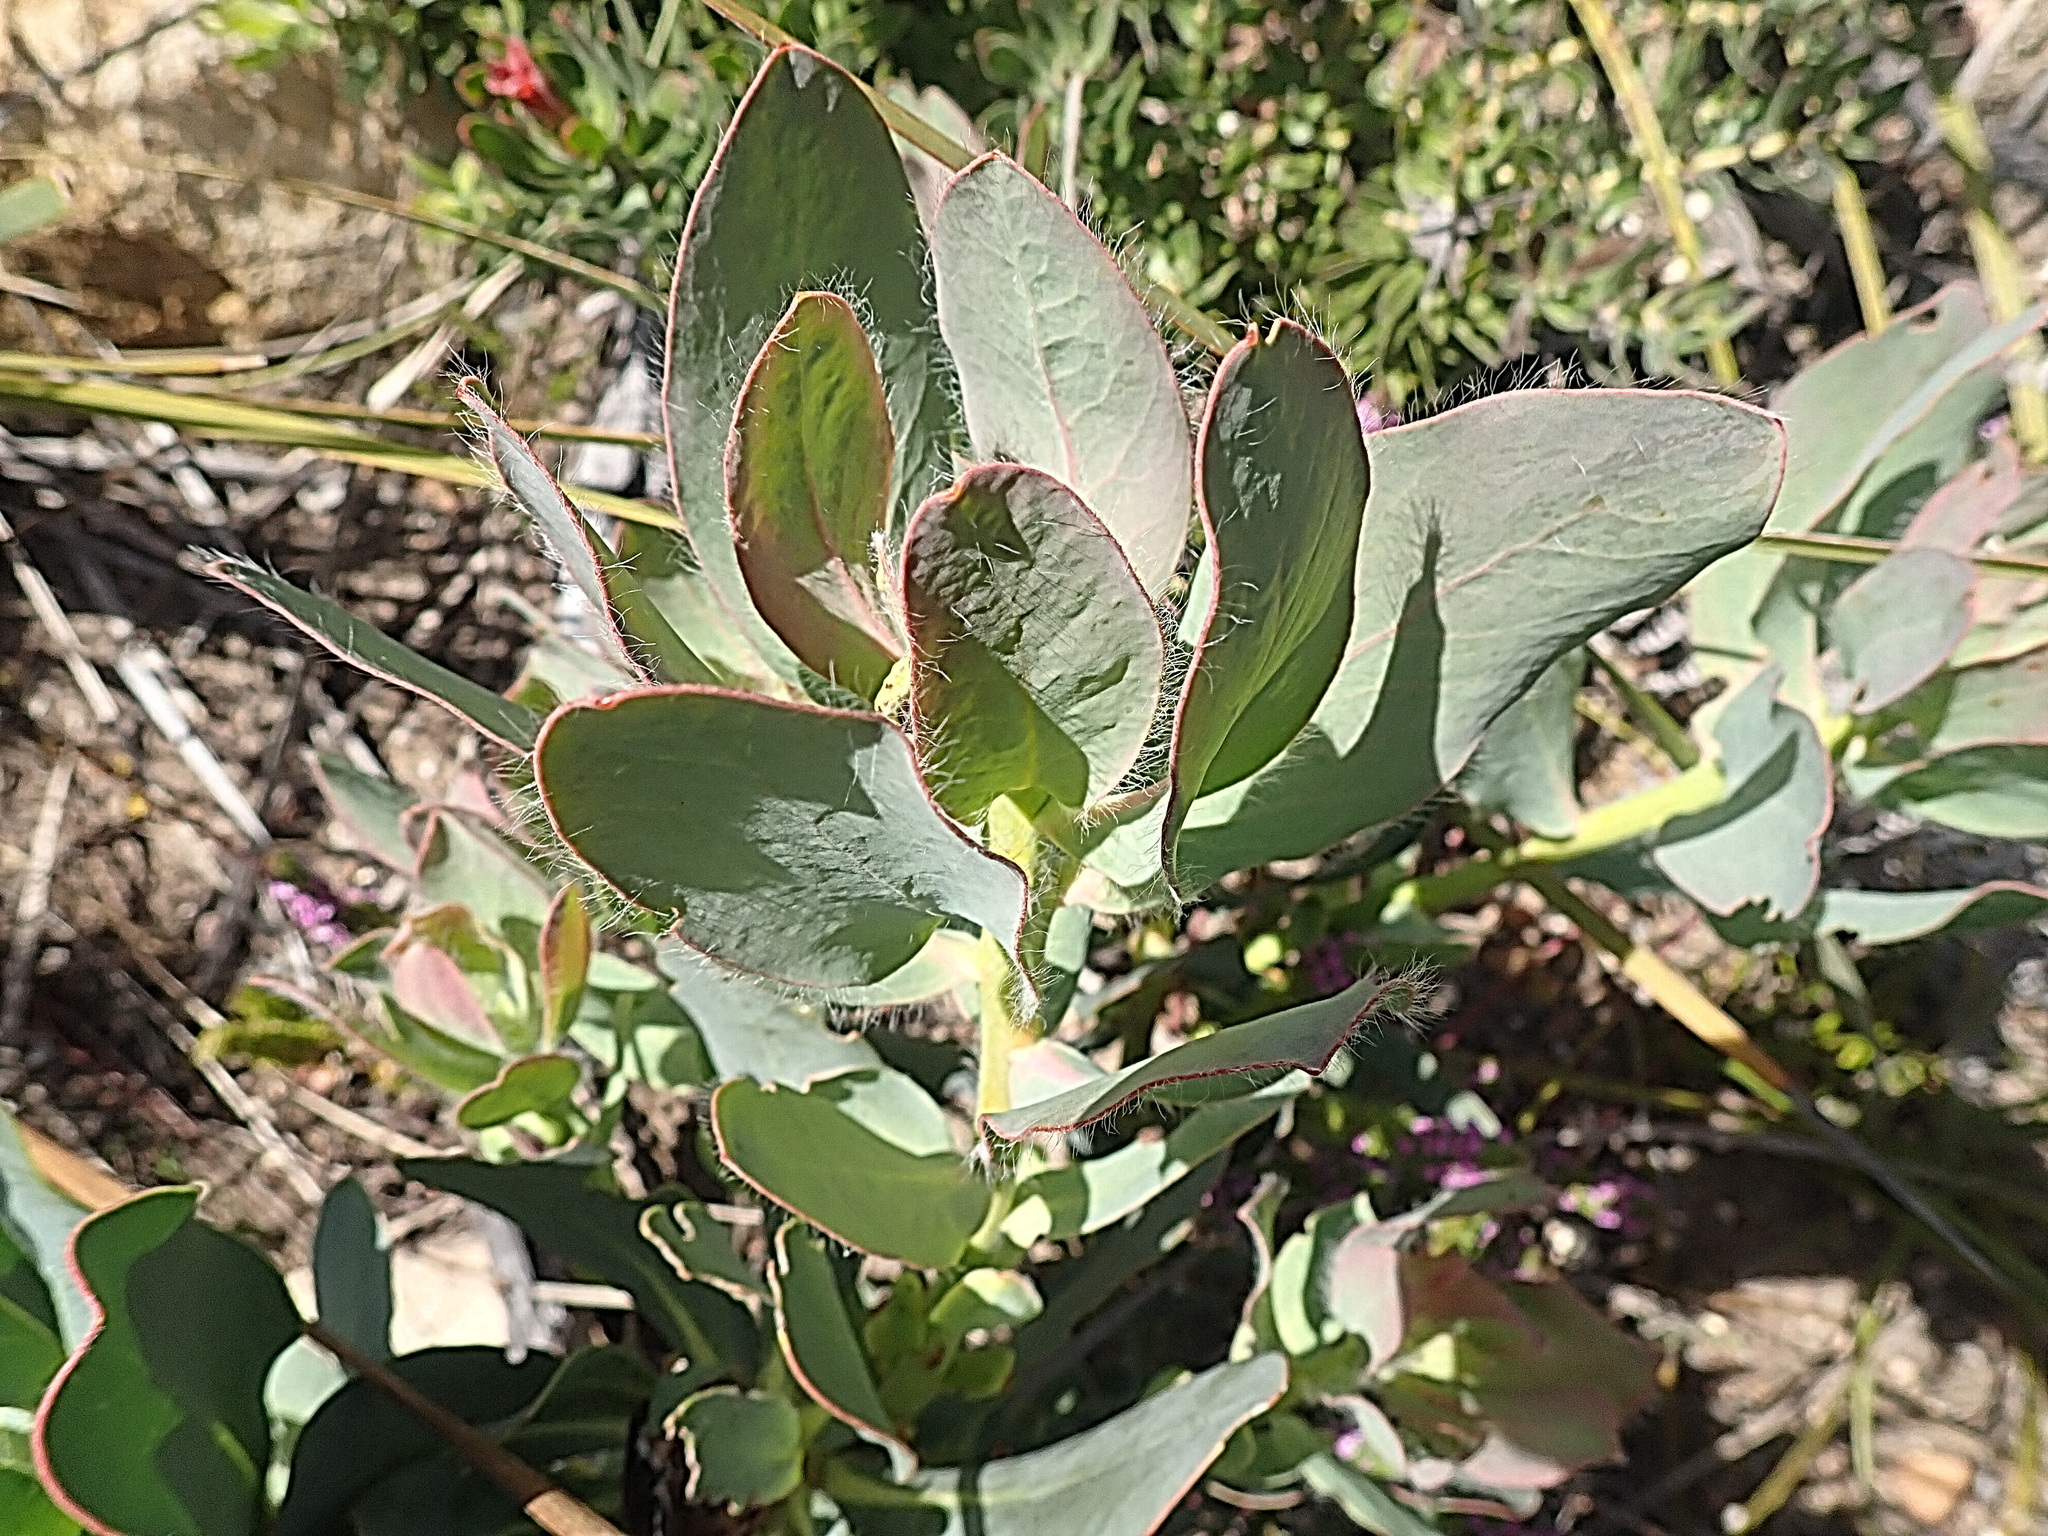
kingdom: Plantae
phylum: Tracheophyta
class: Magnoliopsida
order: Proteales
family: Proteaceae
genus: Protea
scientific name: Protea grandiceps
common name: Red sugarbush
